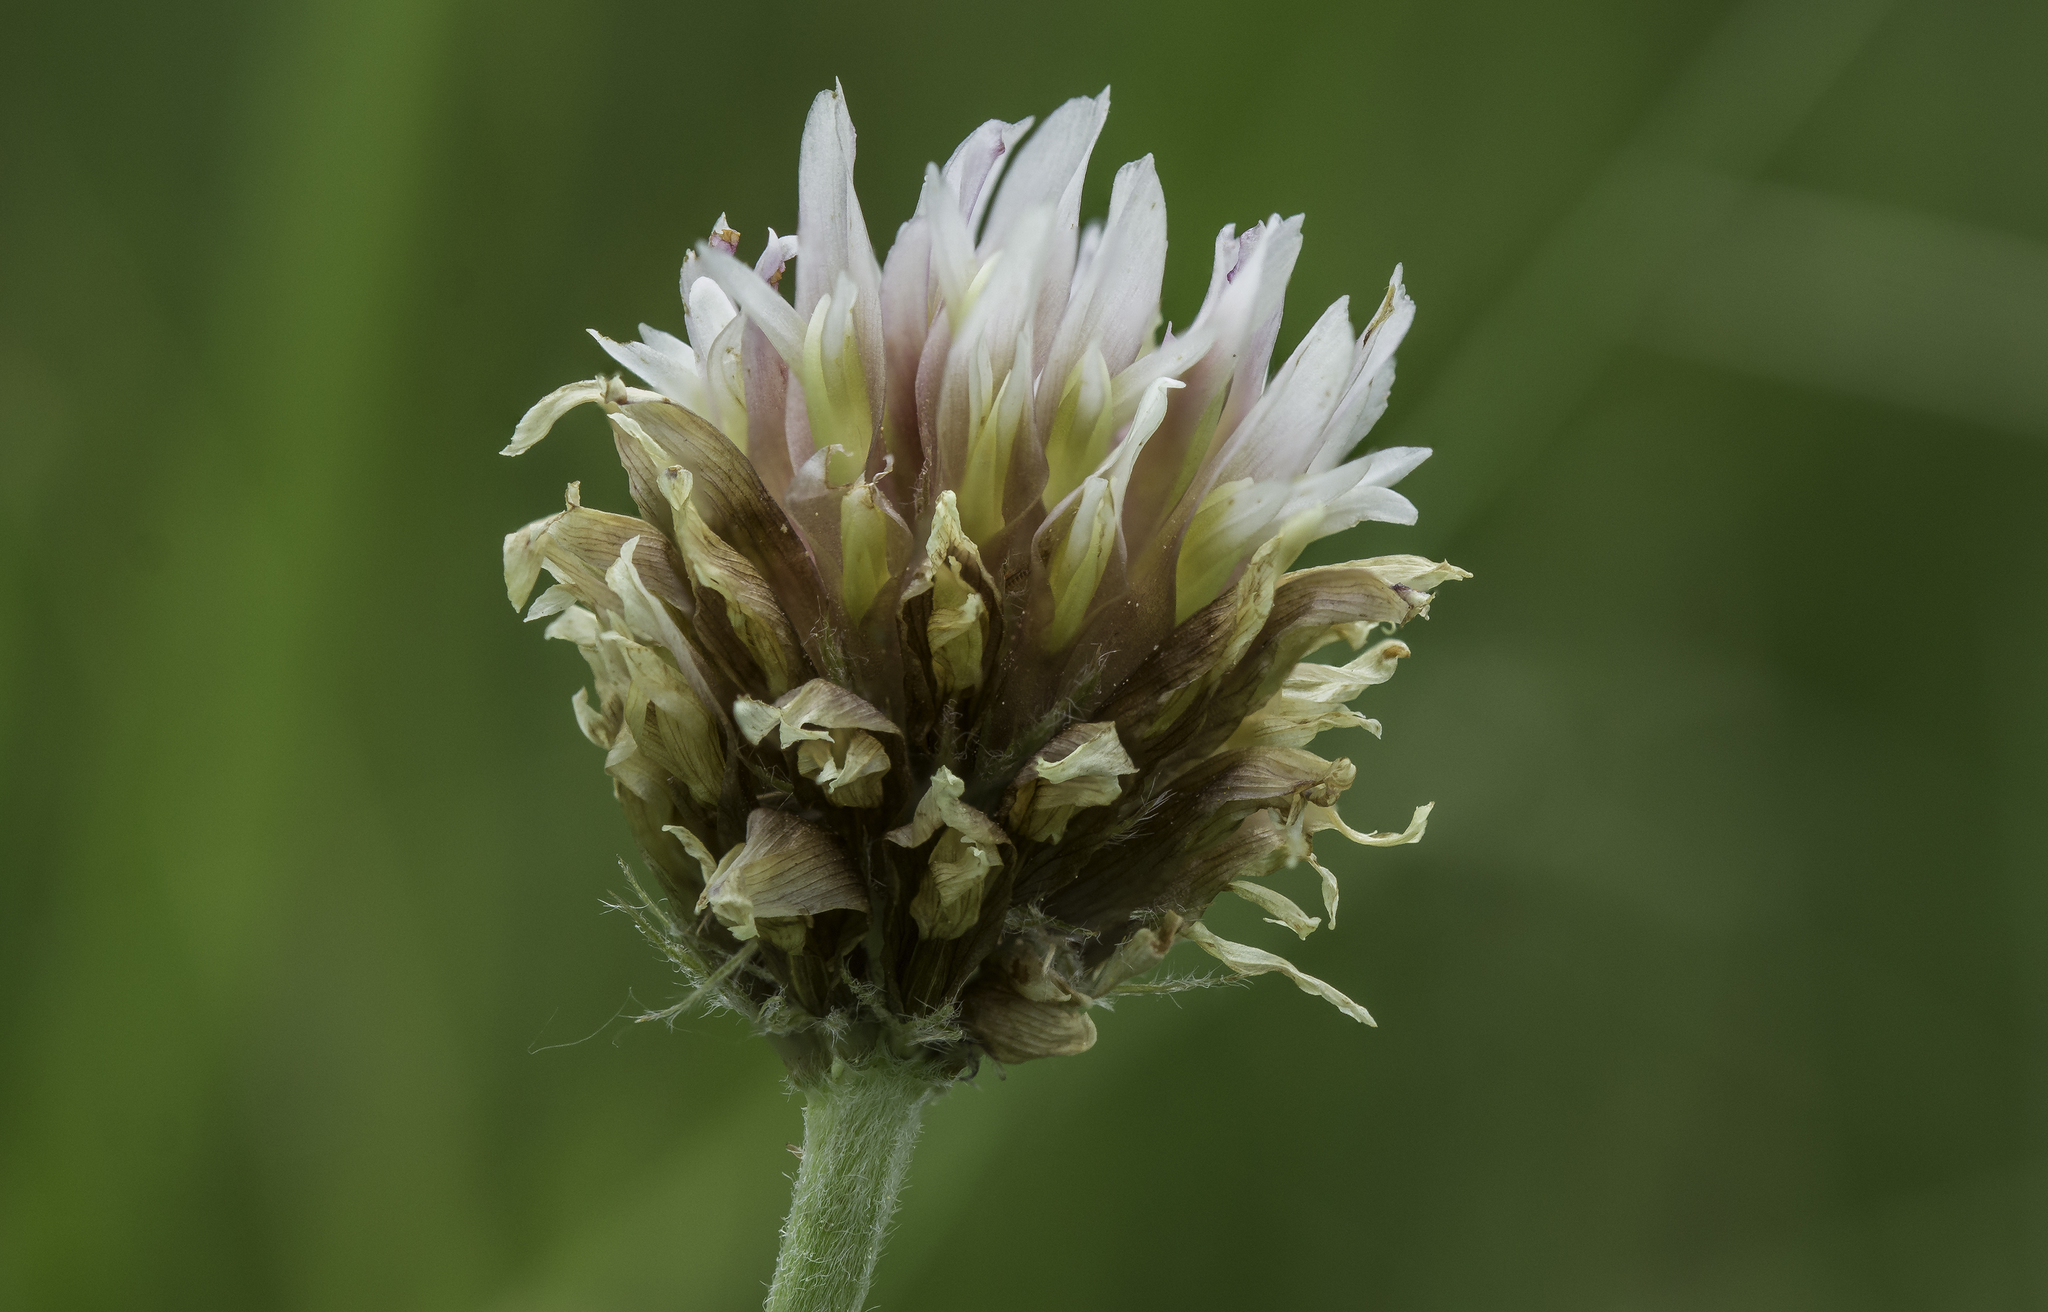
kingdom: Plantae
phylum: Tracheophyta
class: Magnoliopsida
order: Fabales
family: Fabaceae
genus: Trifolium
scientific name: Trifolium longipes
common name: Long-stalk clover
